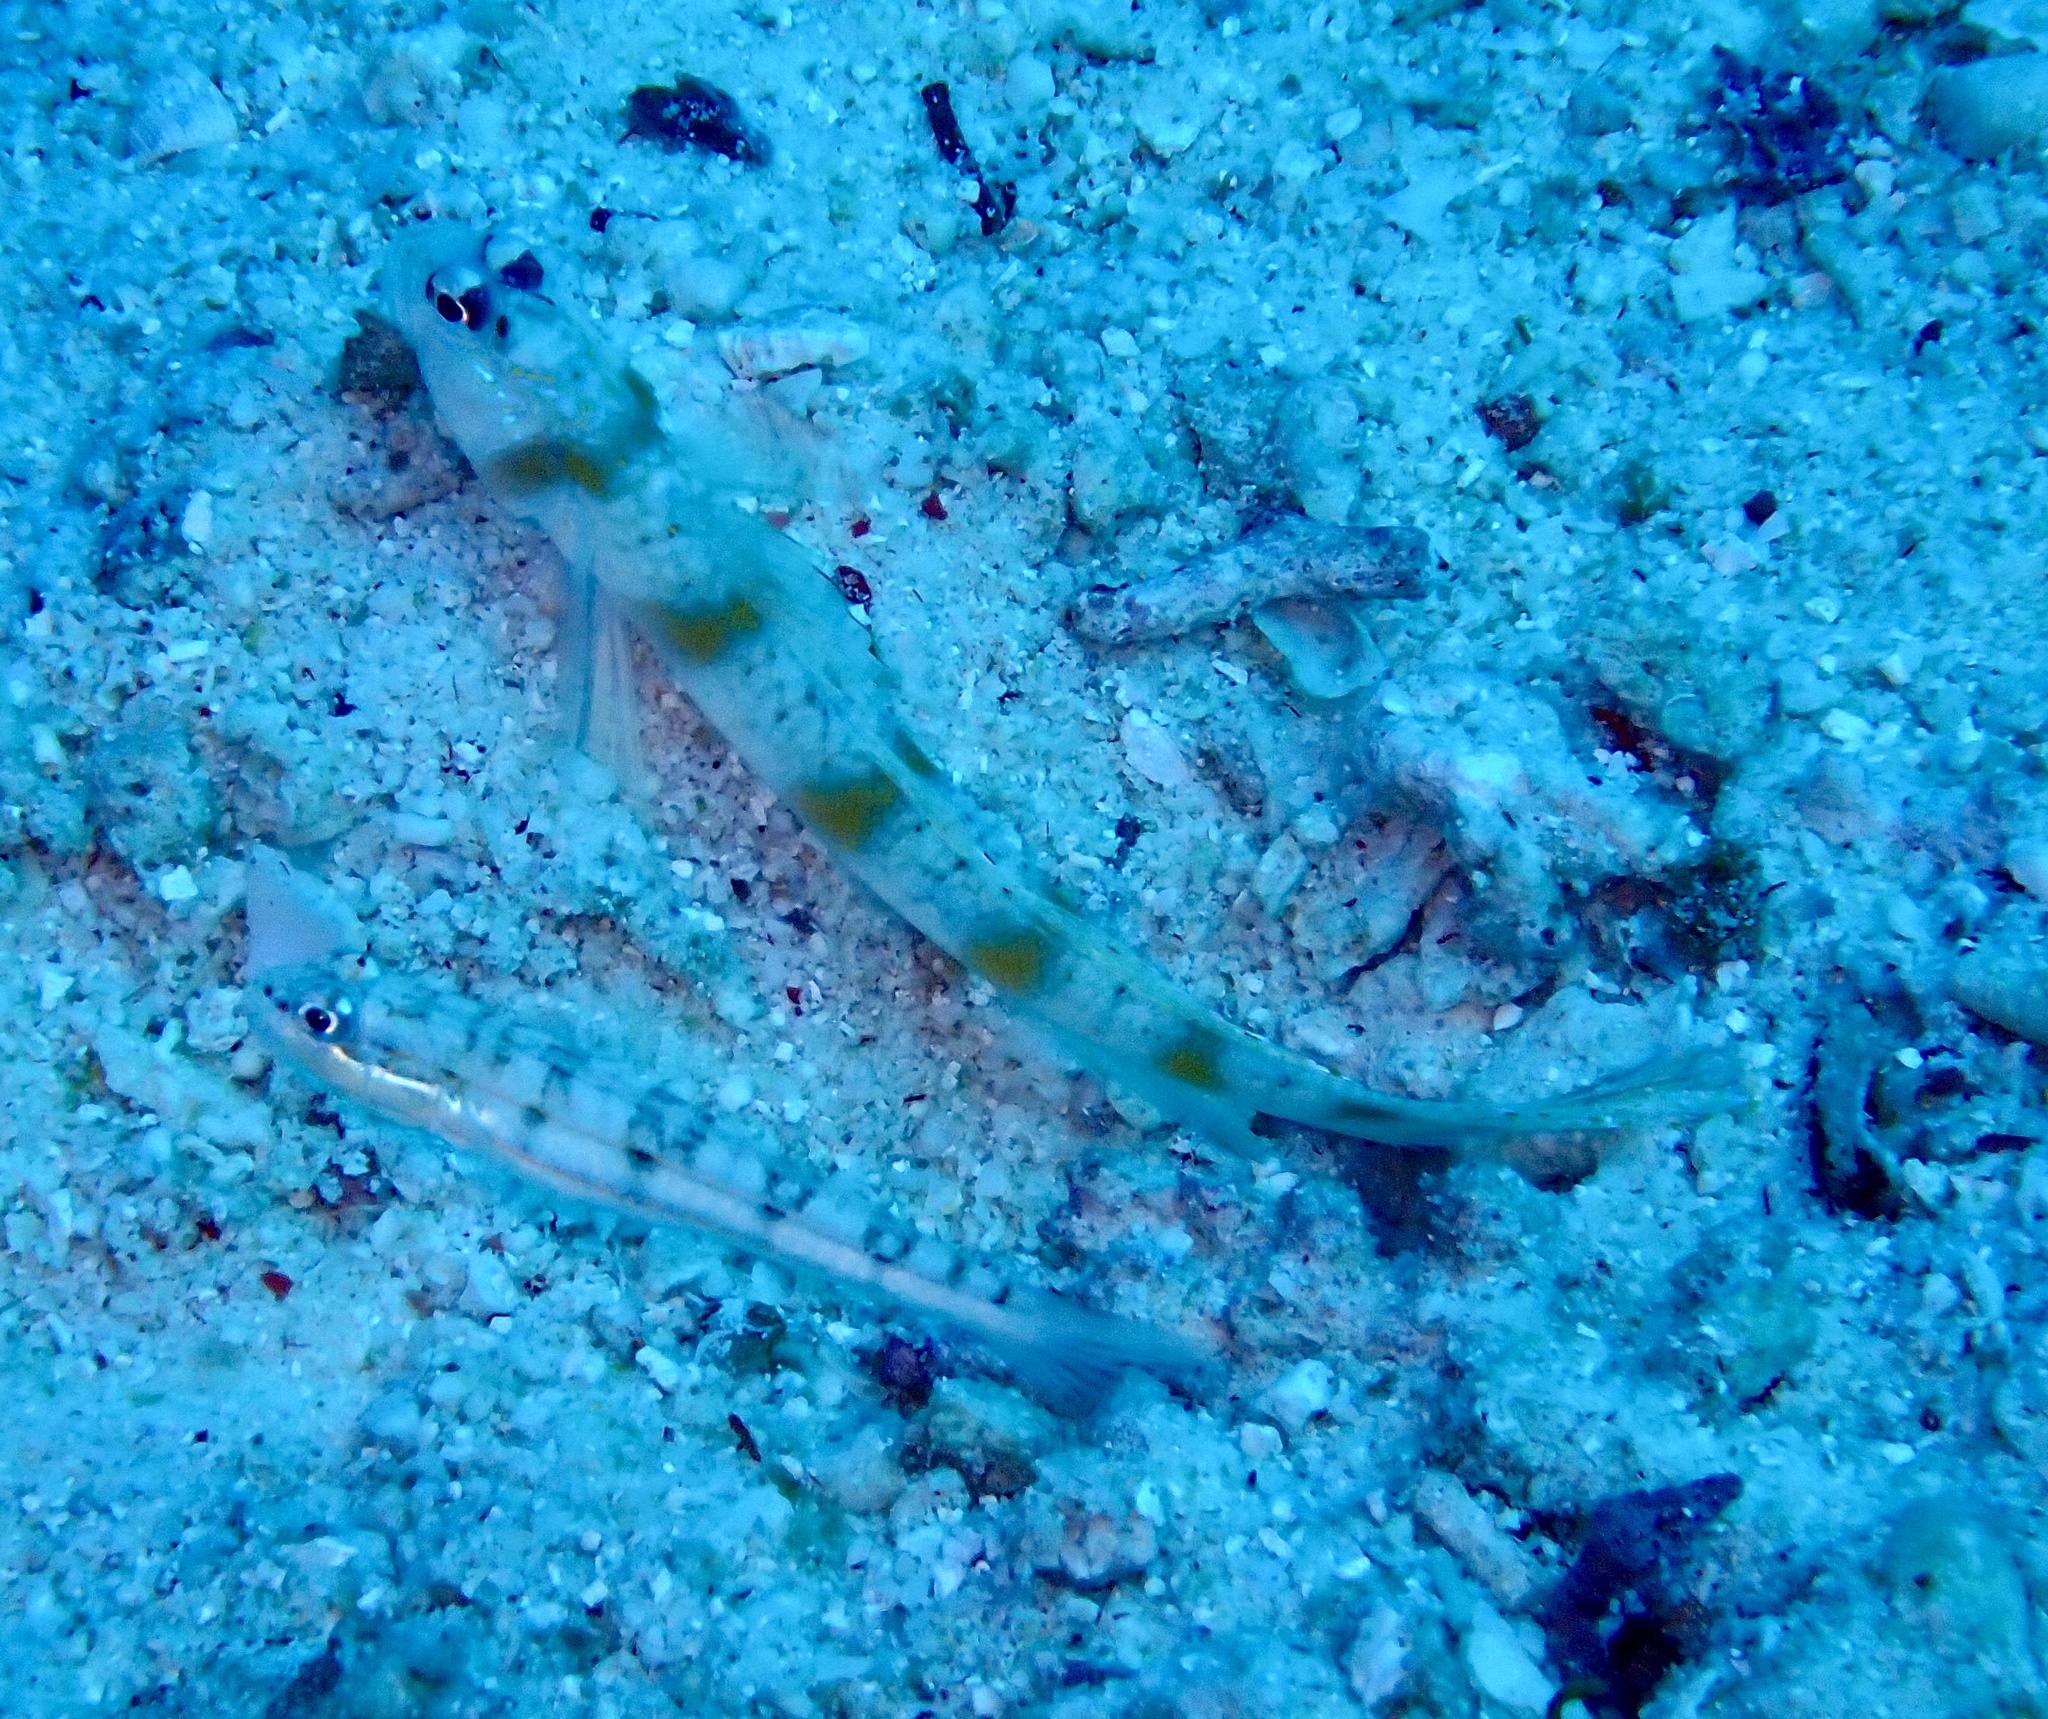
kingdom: Animalia
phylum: Chordata
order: Perciformes
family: Gobiidae
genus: Valenciennea
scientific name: Valenciennea parva
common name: Little glidergoby
